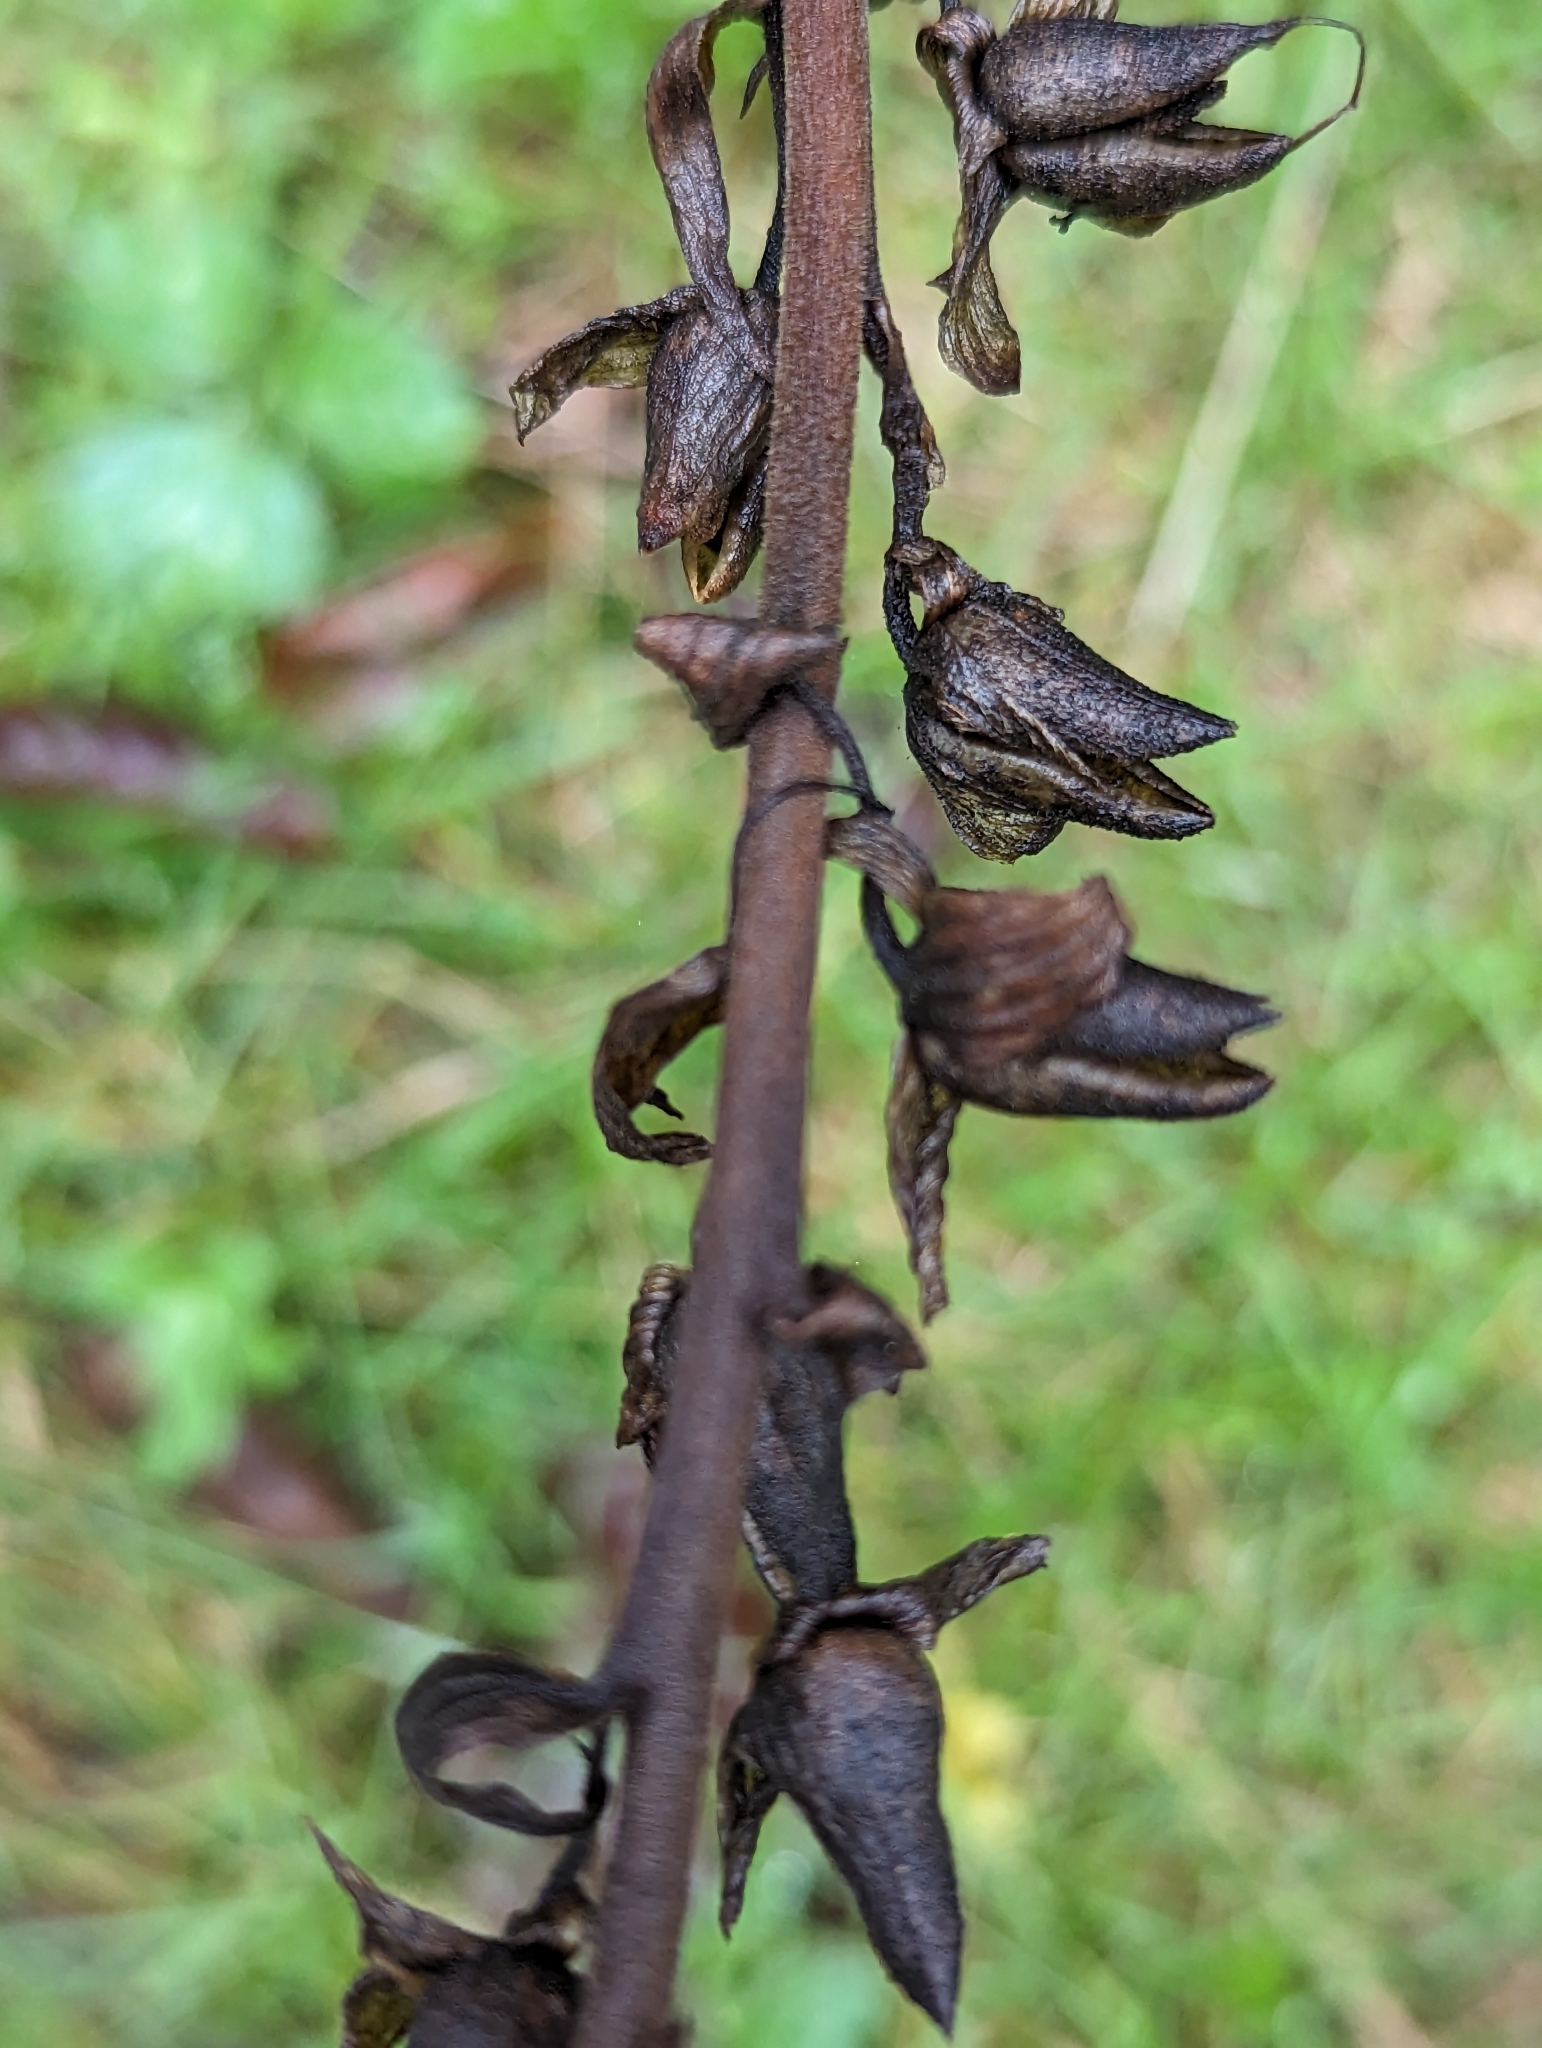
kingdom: Plantae
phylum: Tracheophyta
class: Magnoliopsida
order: Lamiales
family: Plantaginaceae
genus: Digitalis
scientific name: Digitalis purpurea
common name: Foxglove
